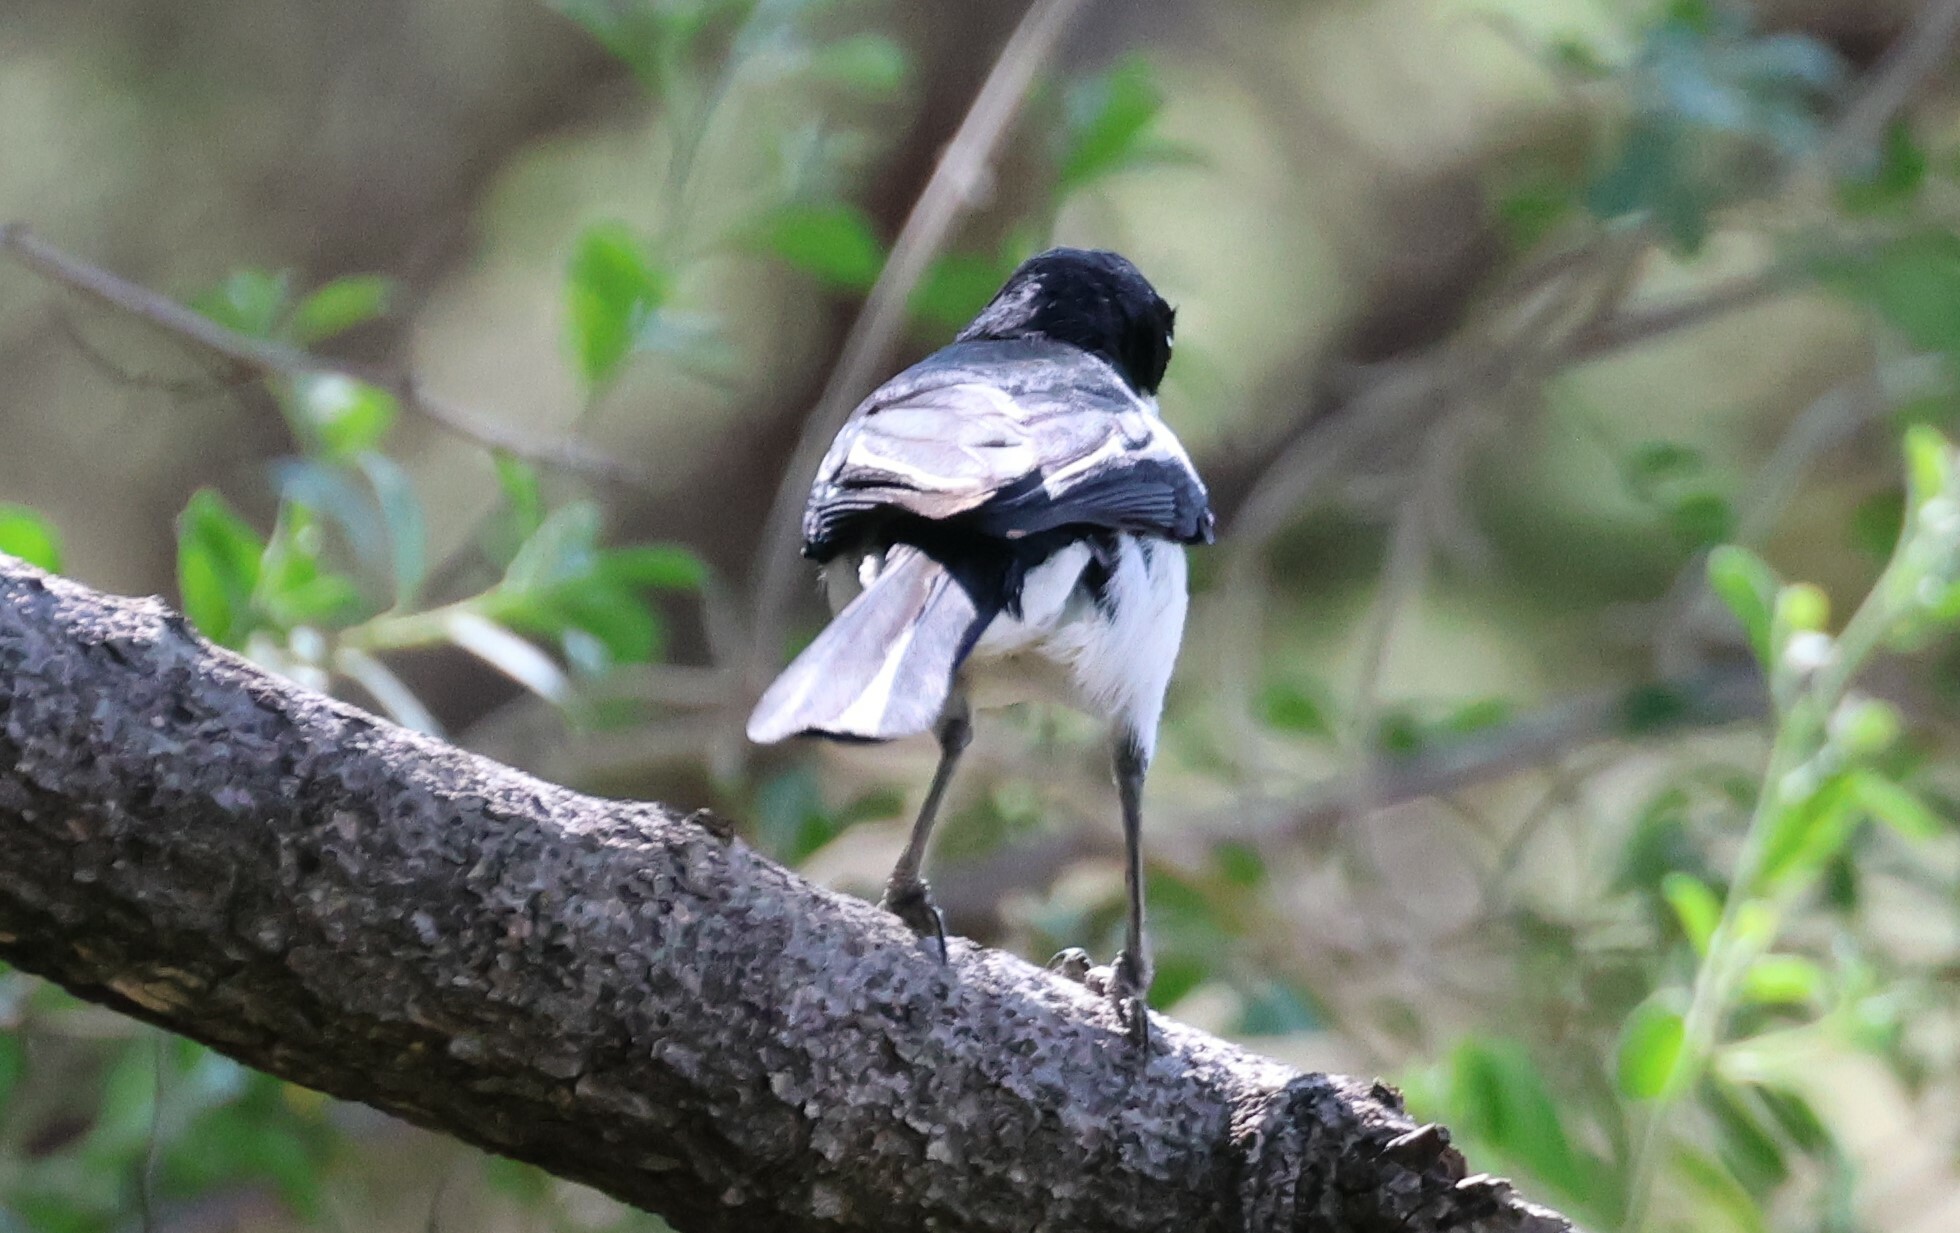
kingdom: Animalia
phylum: Chordata
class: Aves
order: Passeriformes
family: Malaconotidae
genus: Laniarius
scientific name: Laniarius bicolor
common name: Swamp boubou
